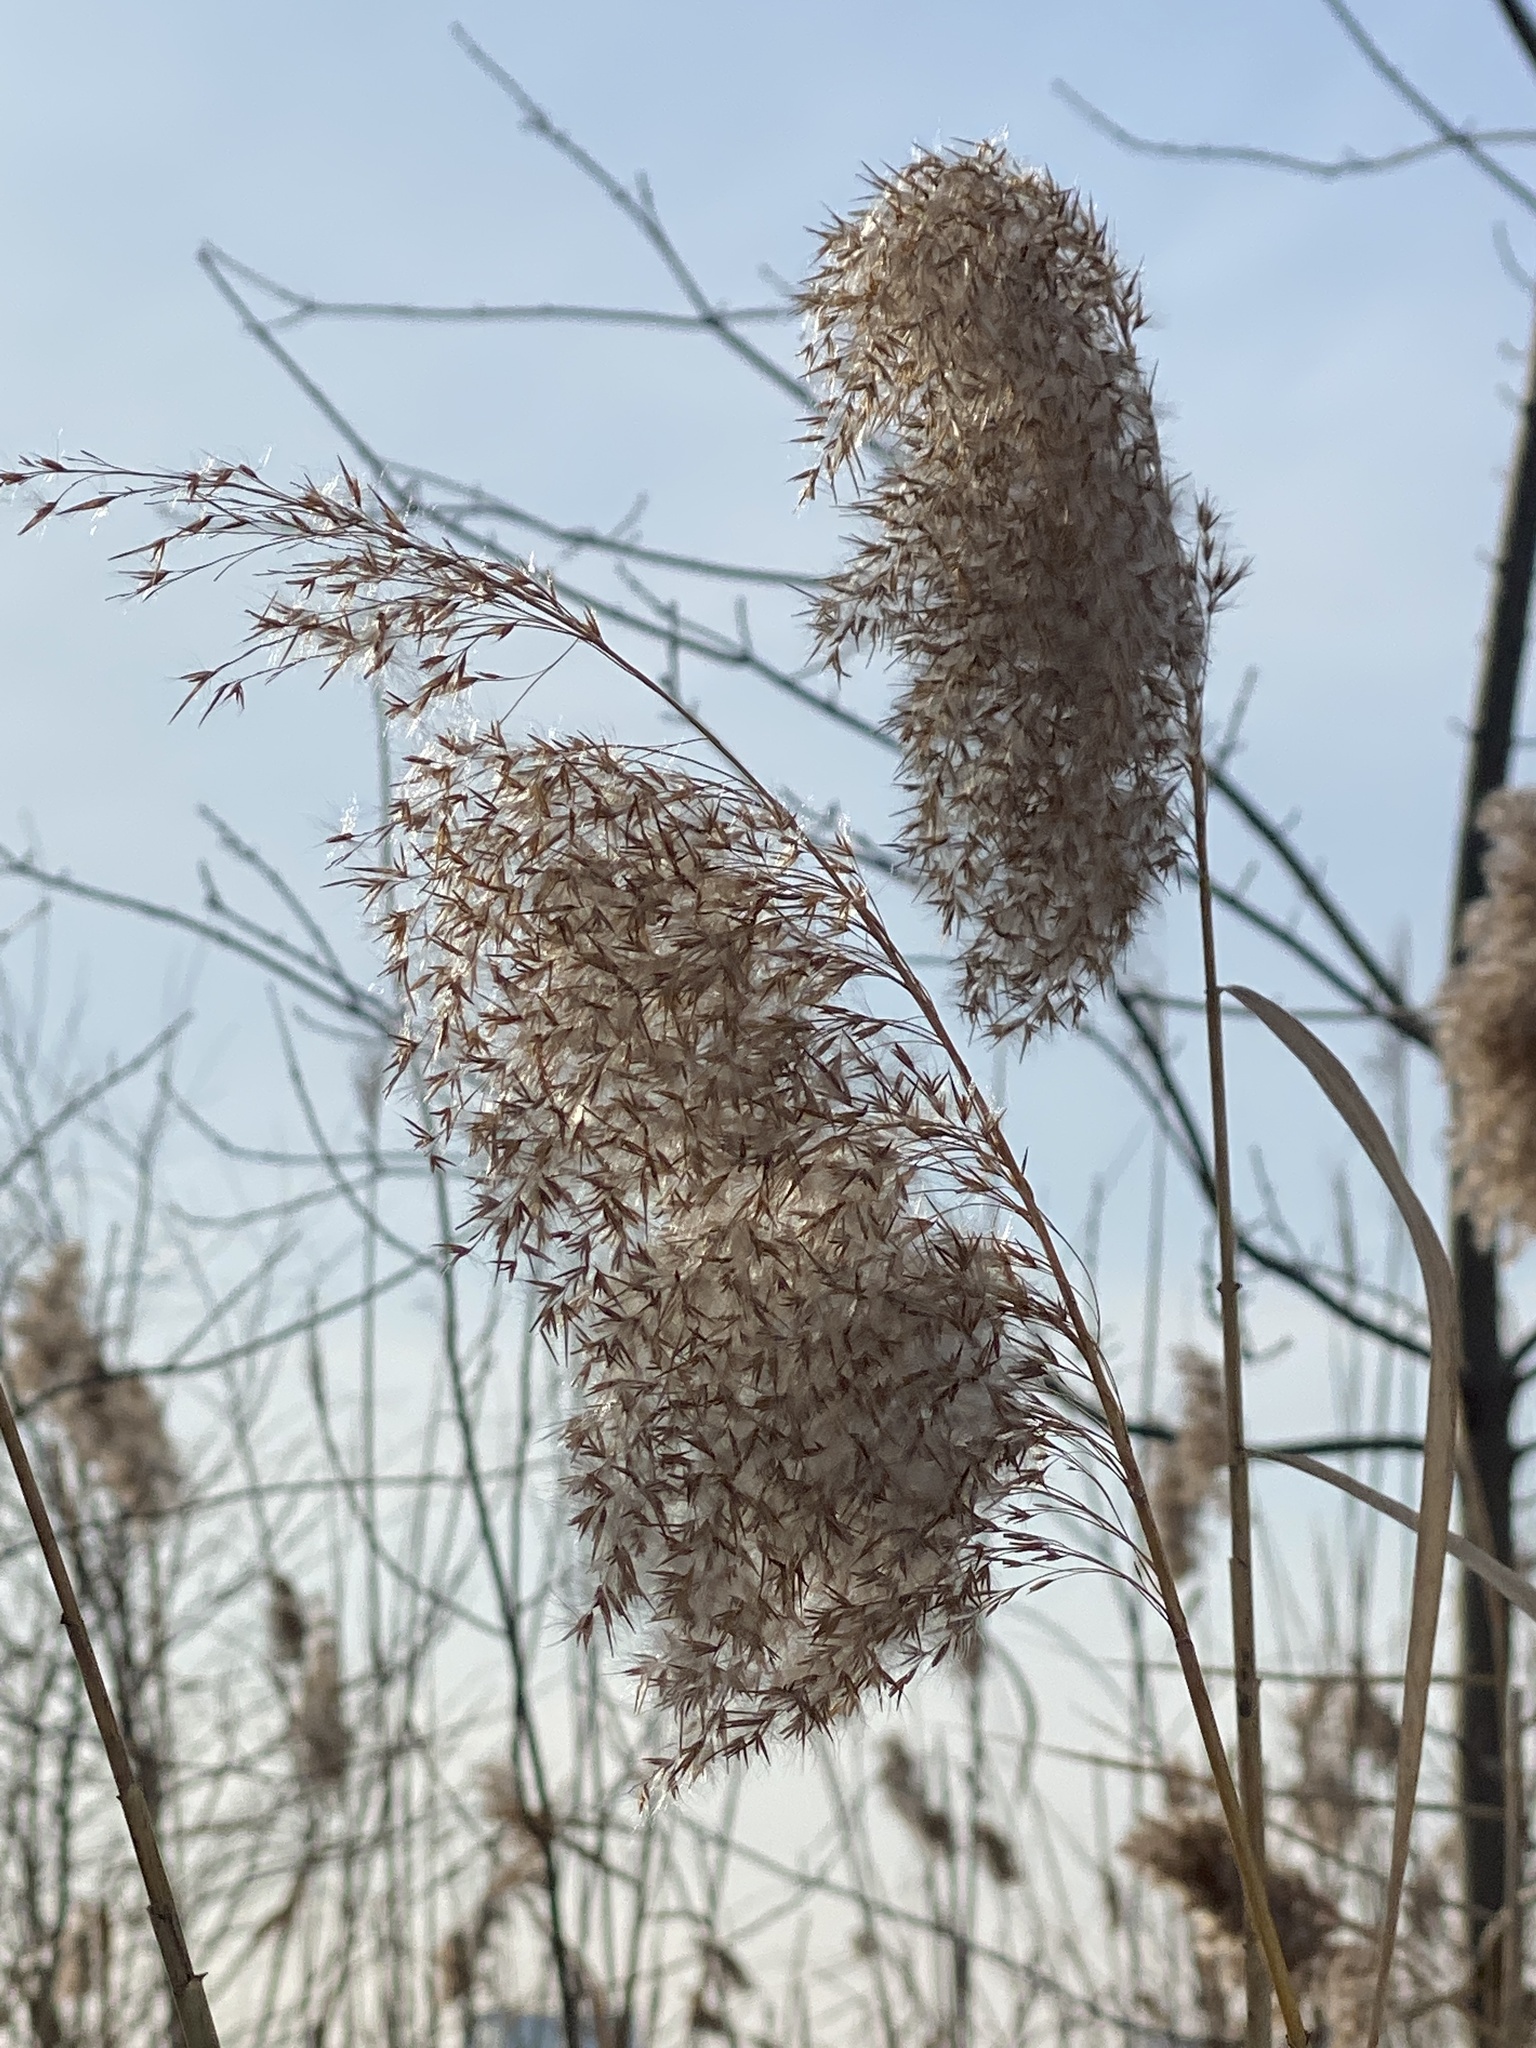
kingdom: Plantae
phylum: Tracheophyta
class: Liliopsida
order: Poales
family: Poaceae
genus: Phragmites
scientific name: Phragmites australis
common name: Common reed
